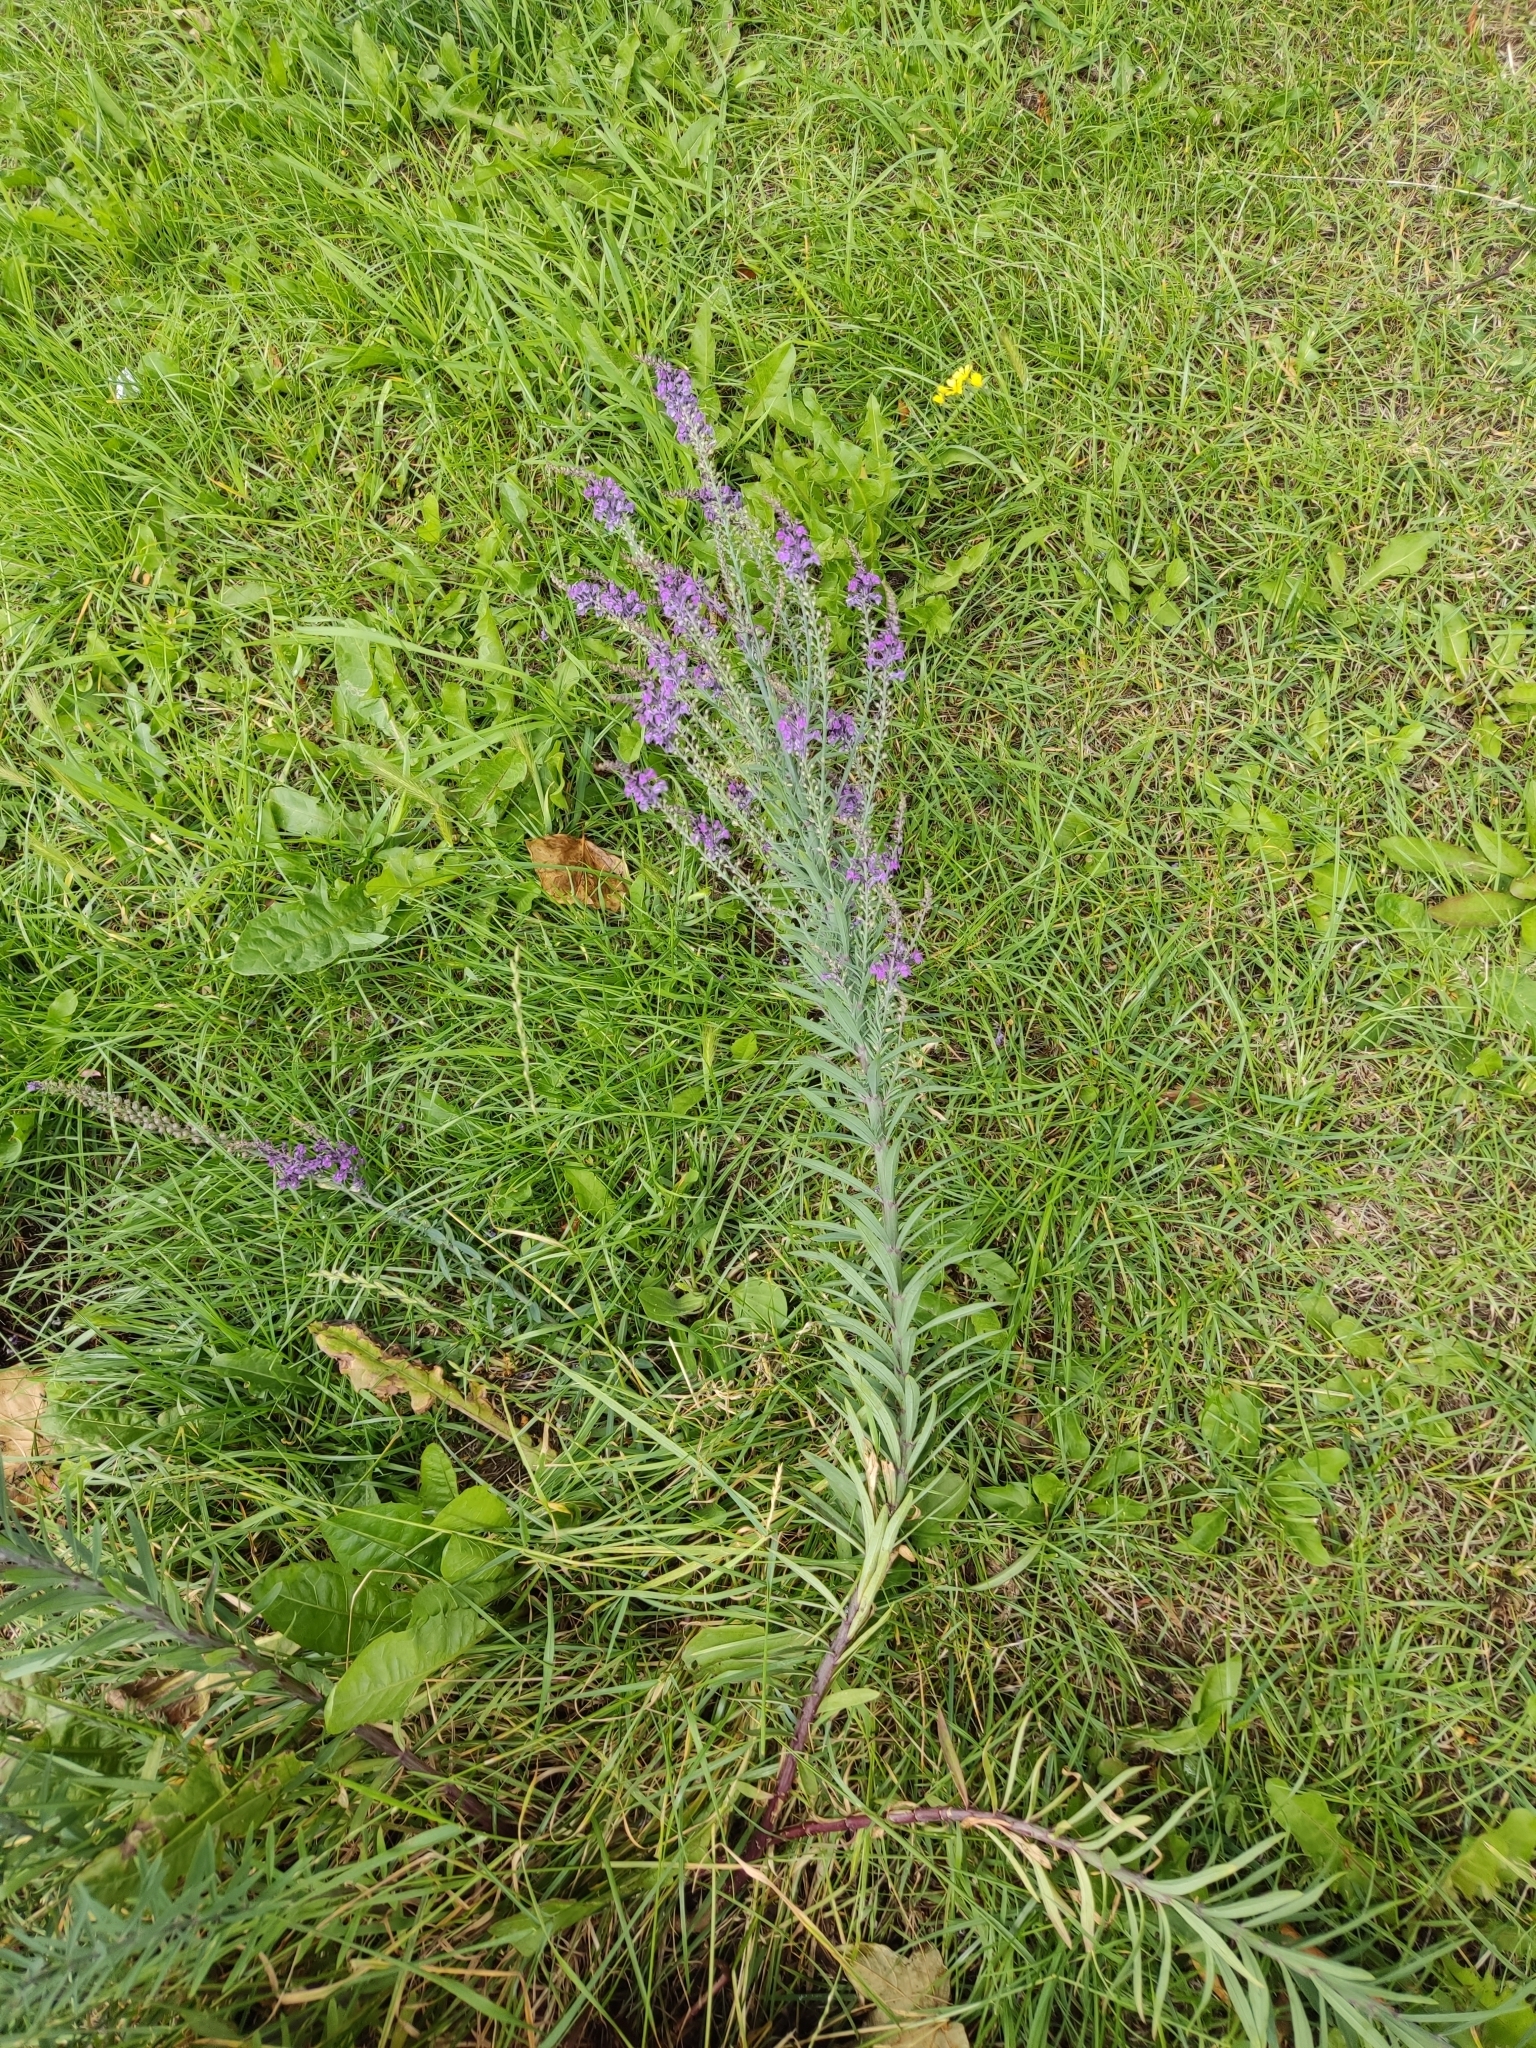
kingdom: Plantae
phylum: Tracheophyta
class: Magnoliopsida
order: Lamiales
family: Plantaginaceae
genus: Linaria
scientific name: Linaria purpurea
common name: Purple toadflax
